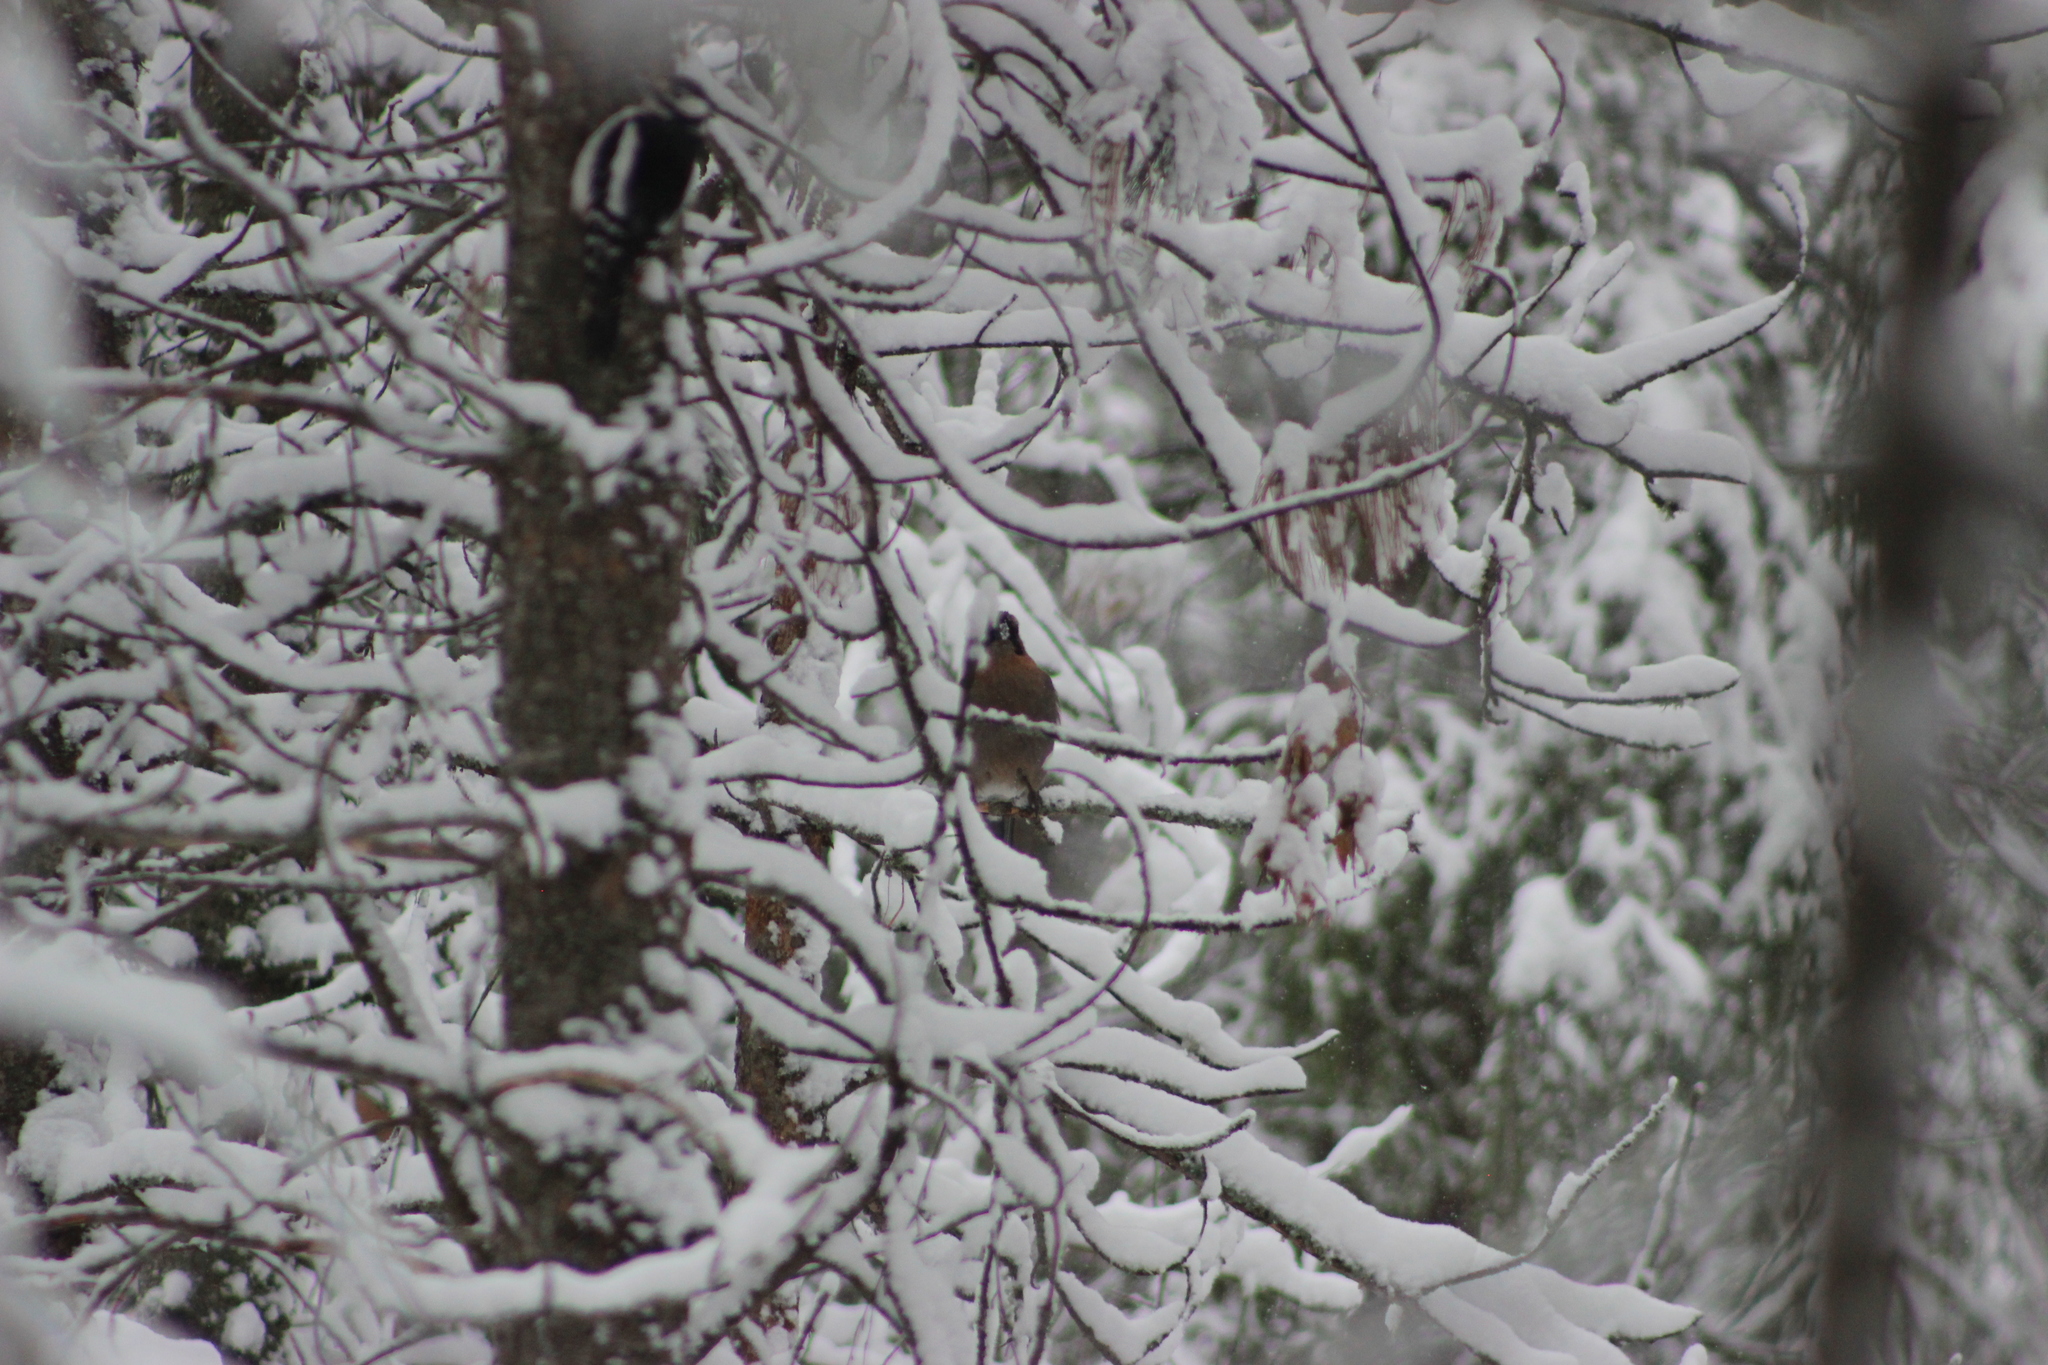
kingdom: Animalia
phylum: Chordata
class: Aves
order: Passeriformes
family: Corvidae
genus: Garrulus
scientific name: Garrulus glandarius
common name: Eurasian jay
